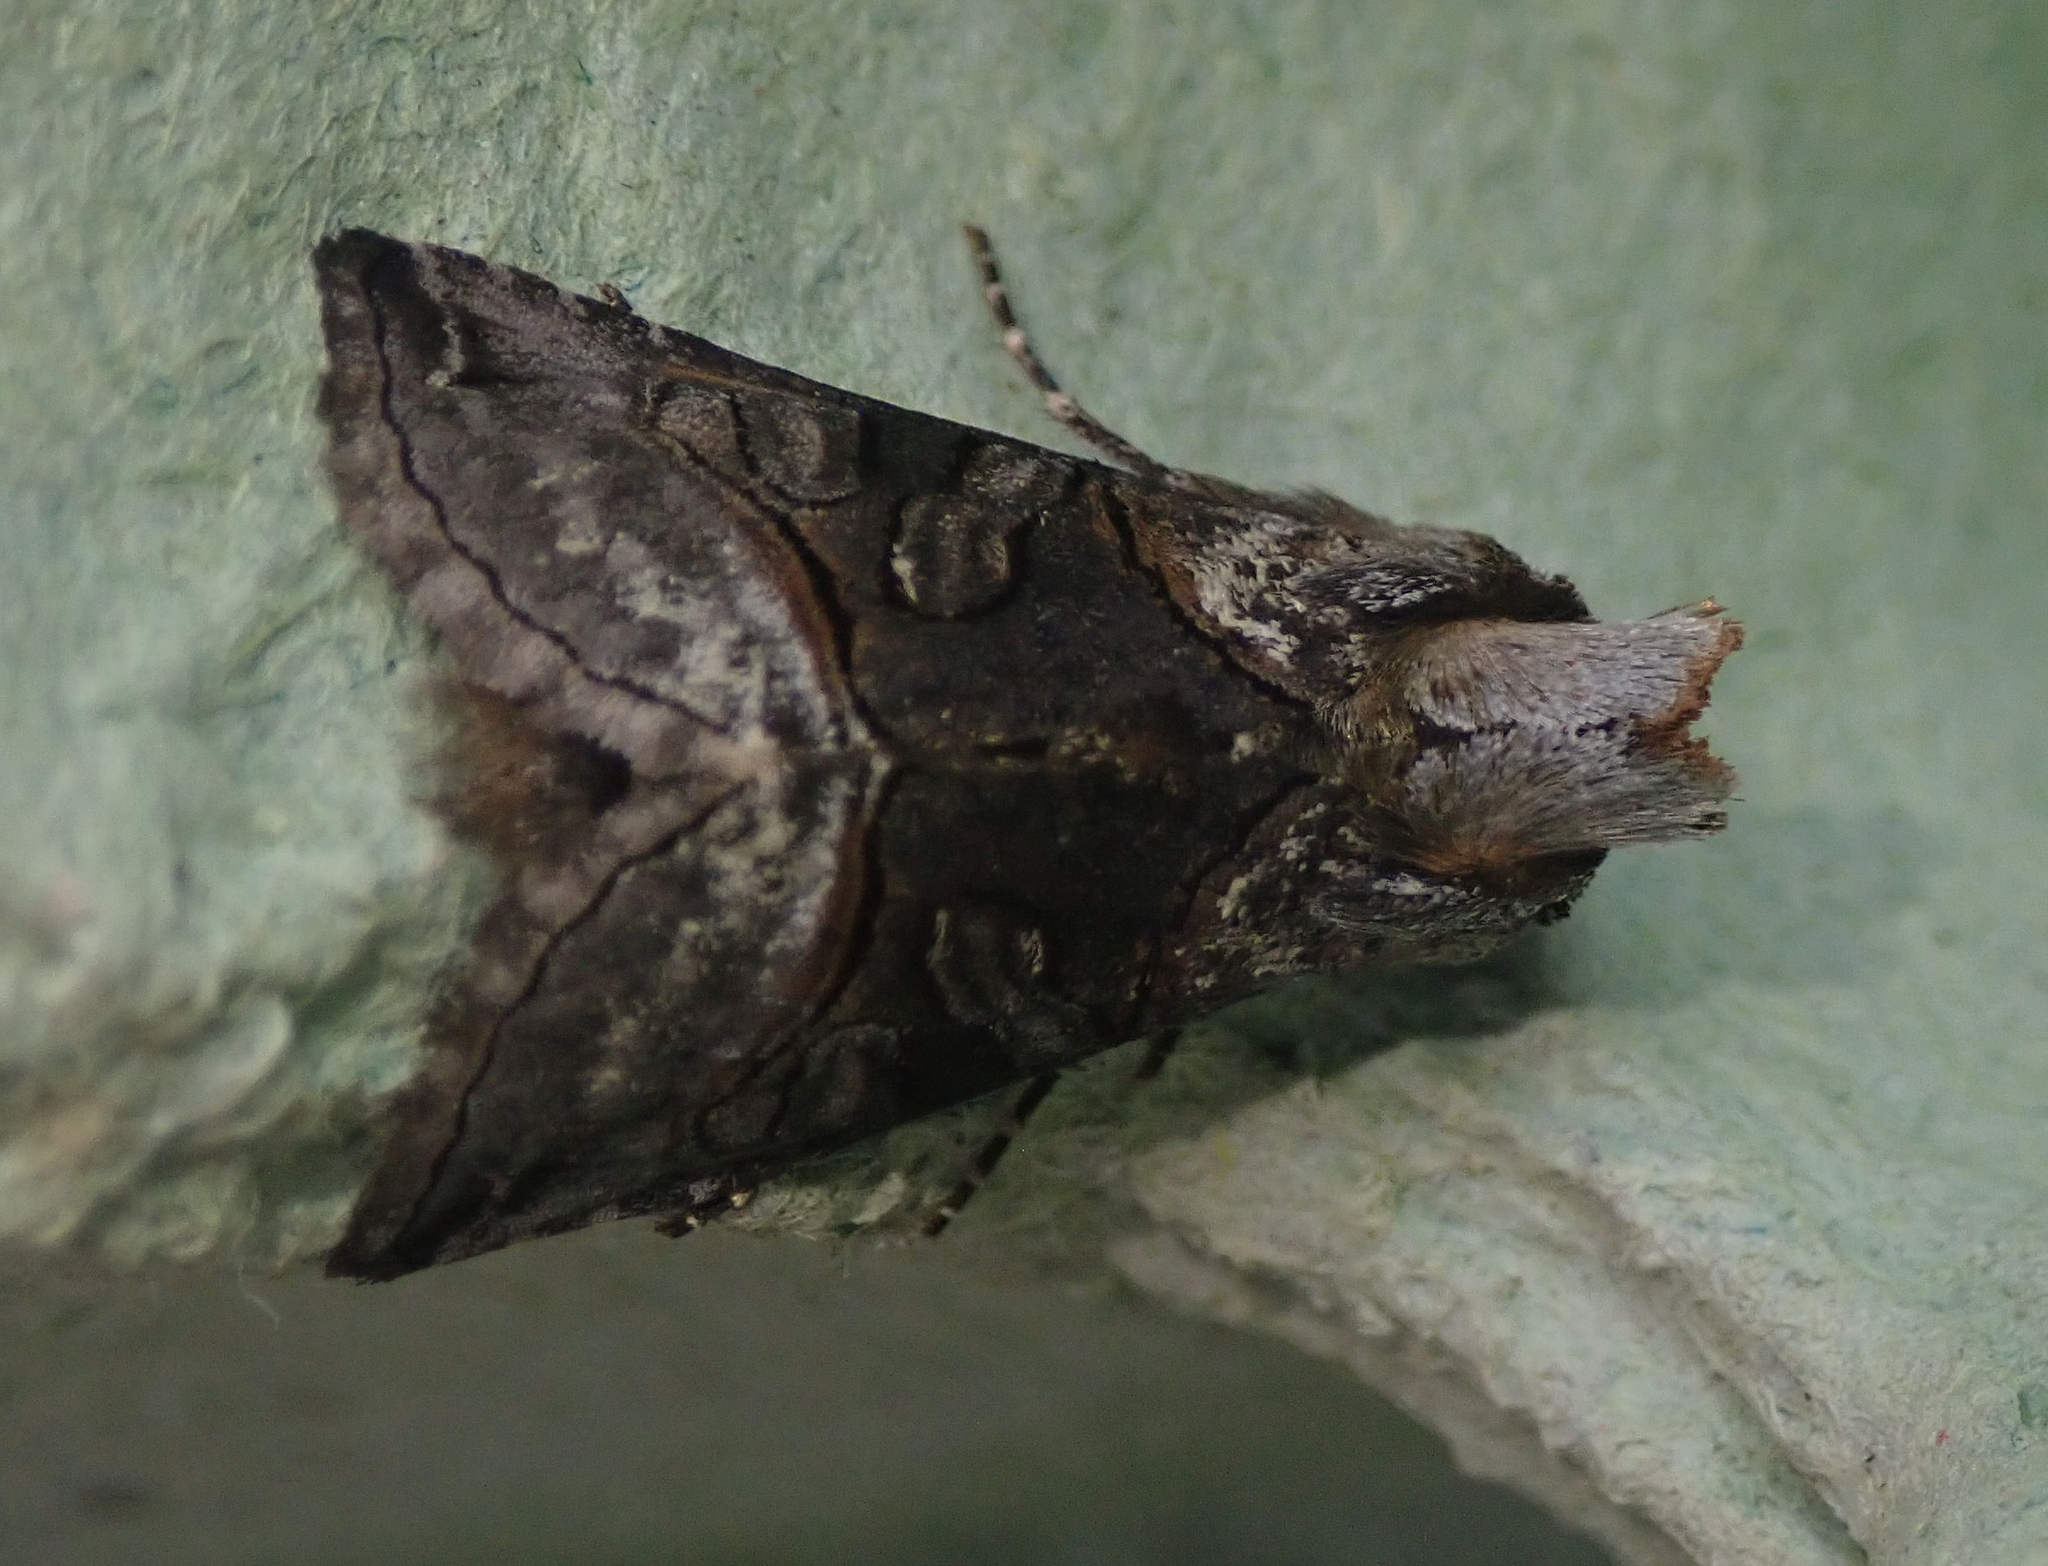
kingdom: Animalia
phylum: Arthropoda
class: Insecta
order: Lepidoptera
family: Noctuidae
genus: Abrostola
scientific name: Abrostola tripartita
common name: Spectacle
